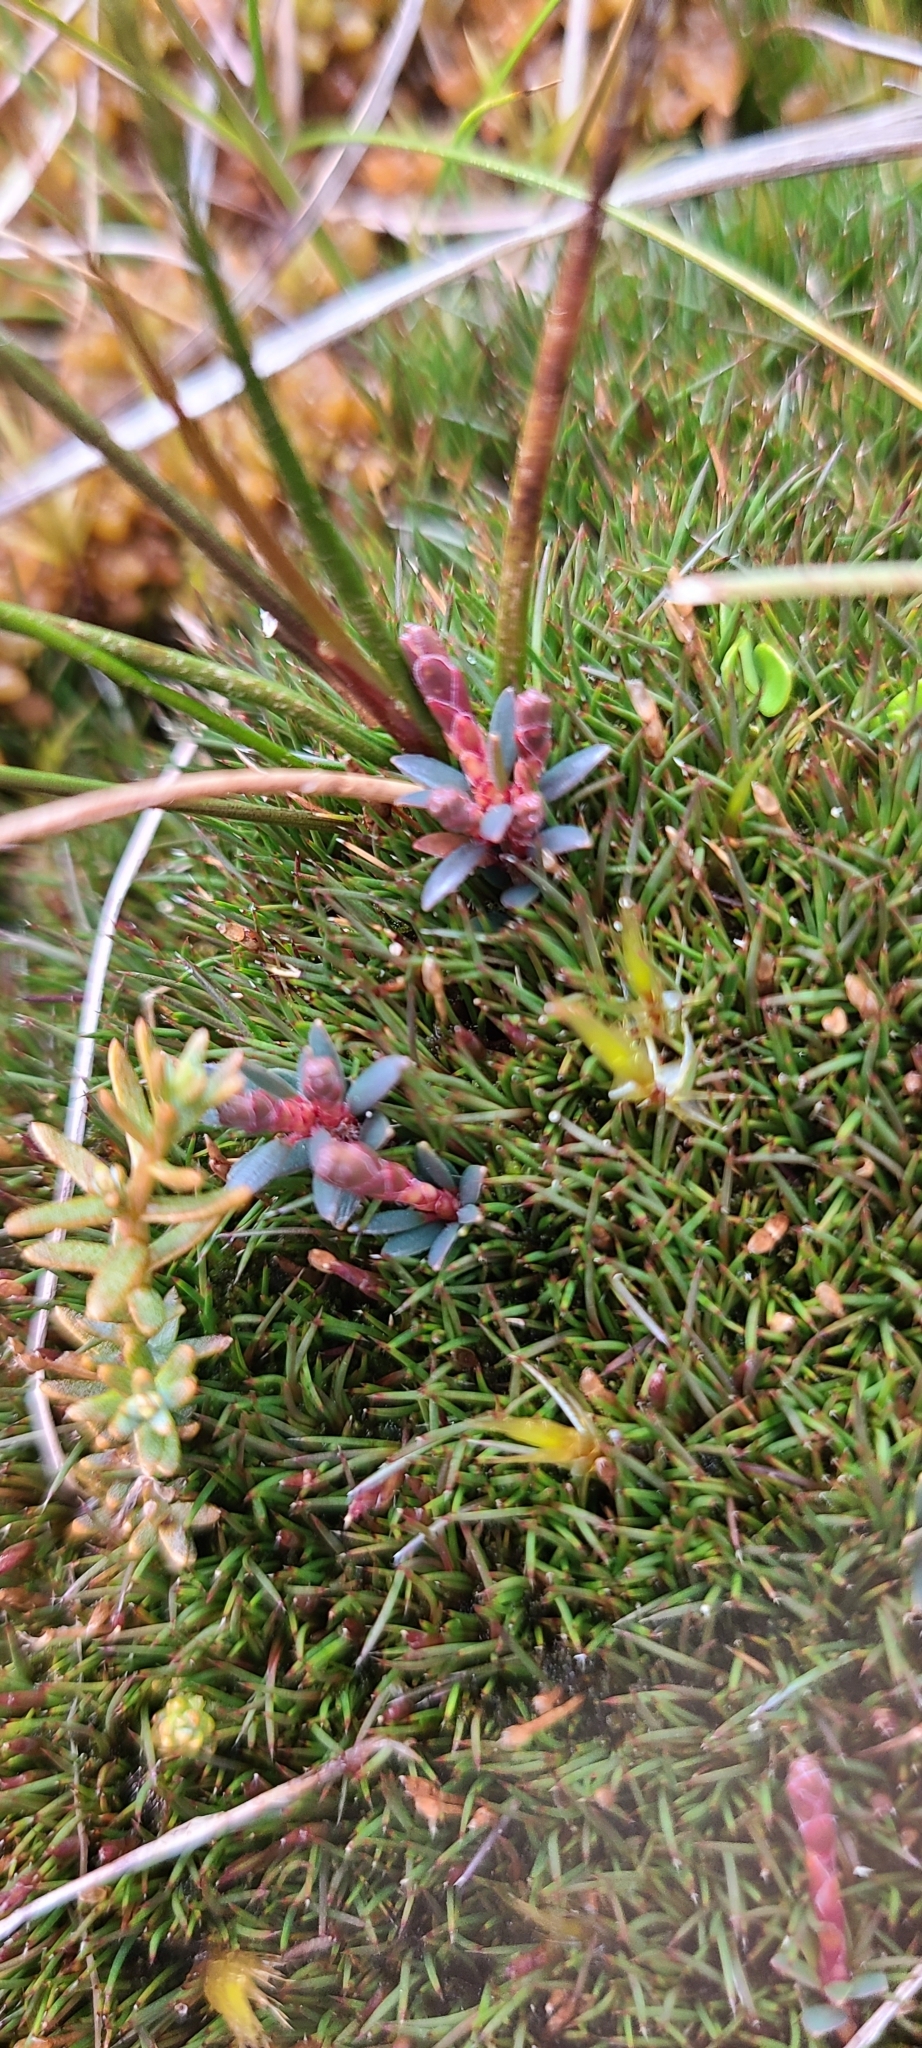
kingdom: Plantae
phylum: Tracheophyta
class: Magnoliopsida
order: Ericales
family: Ericaceae
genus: Pentachondra
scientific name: Pentachondra pumila
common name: Carpet-heath
